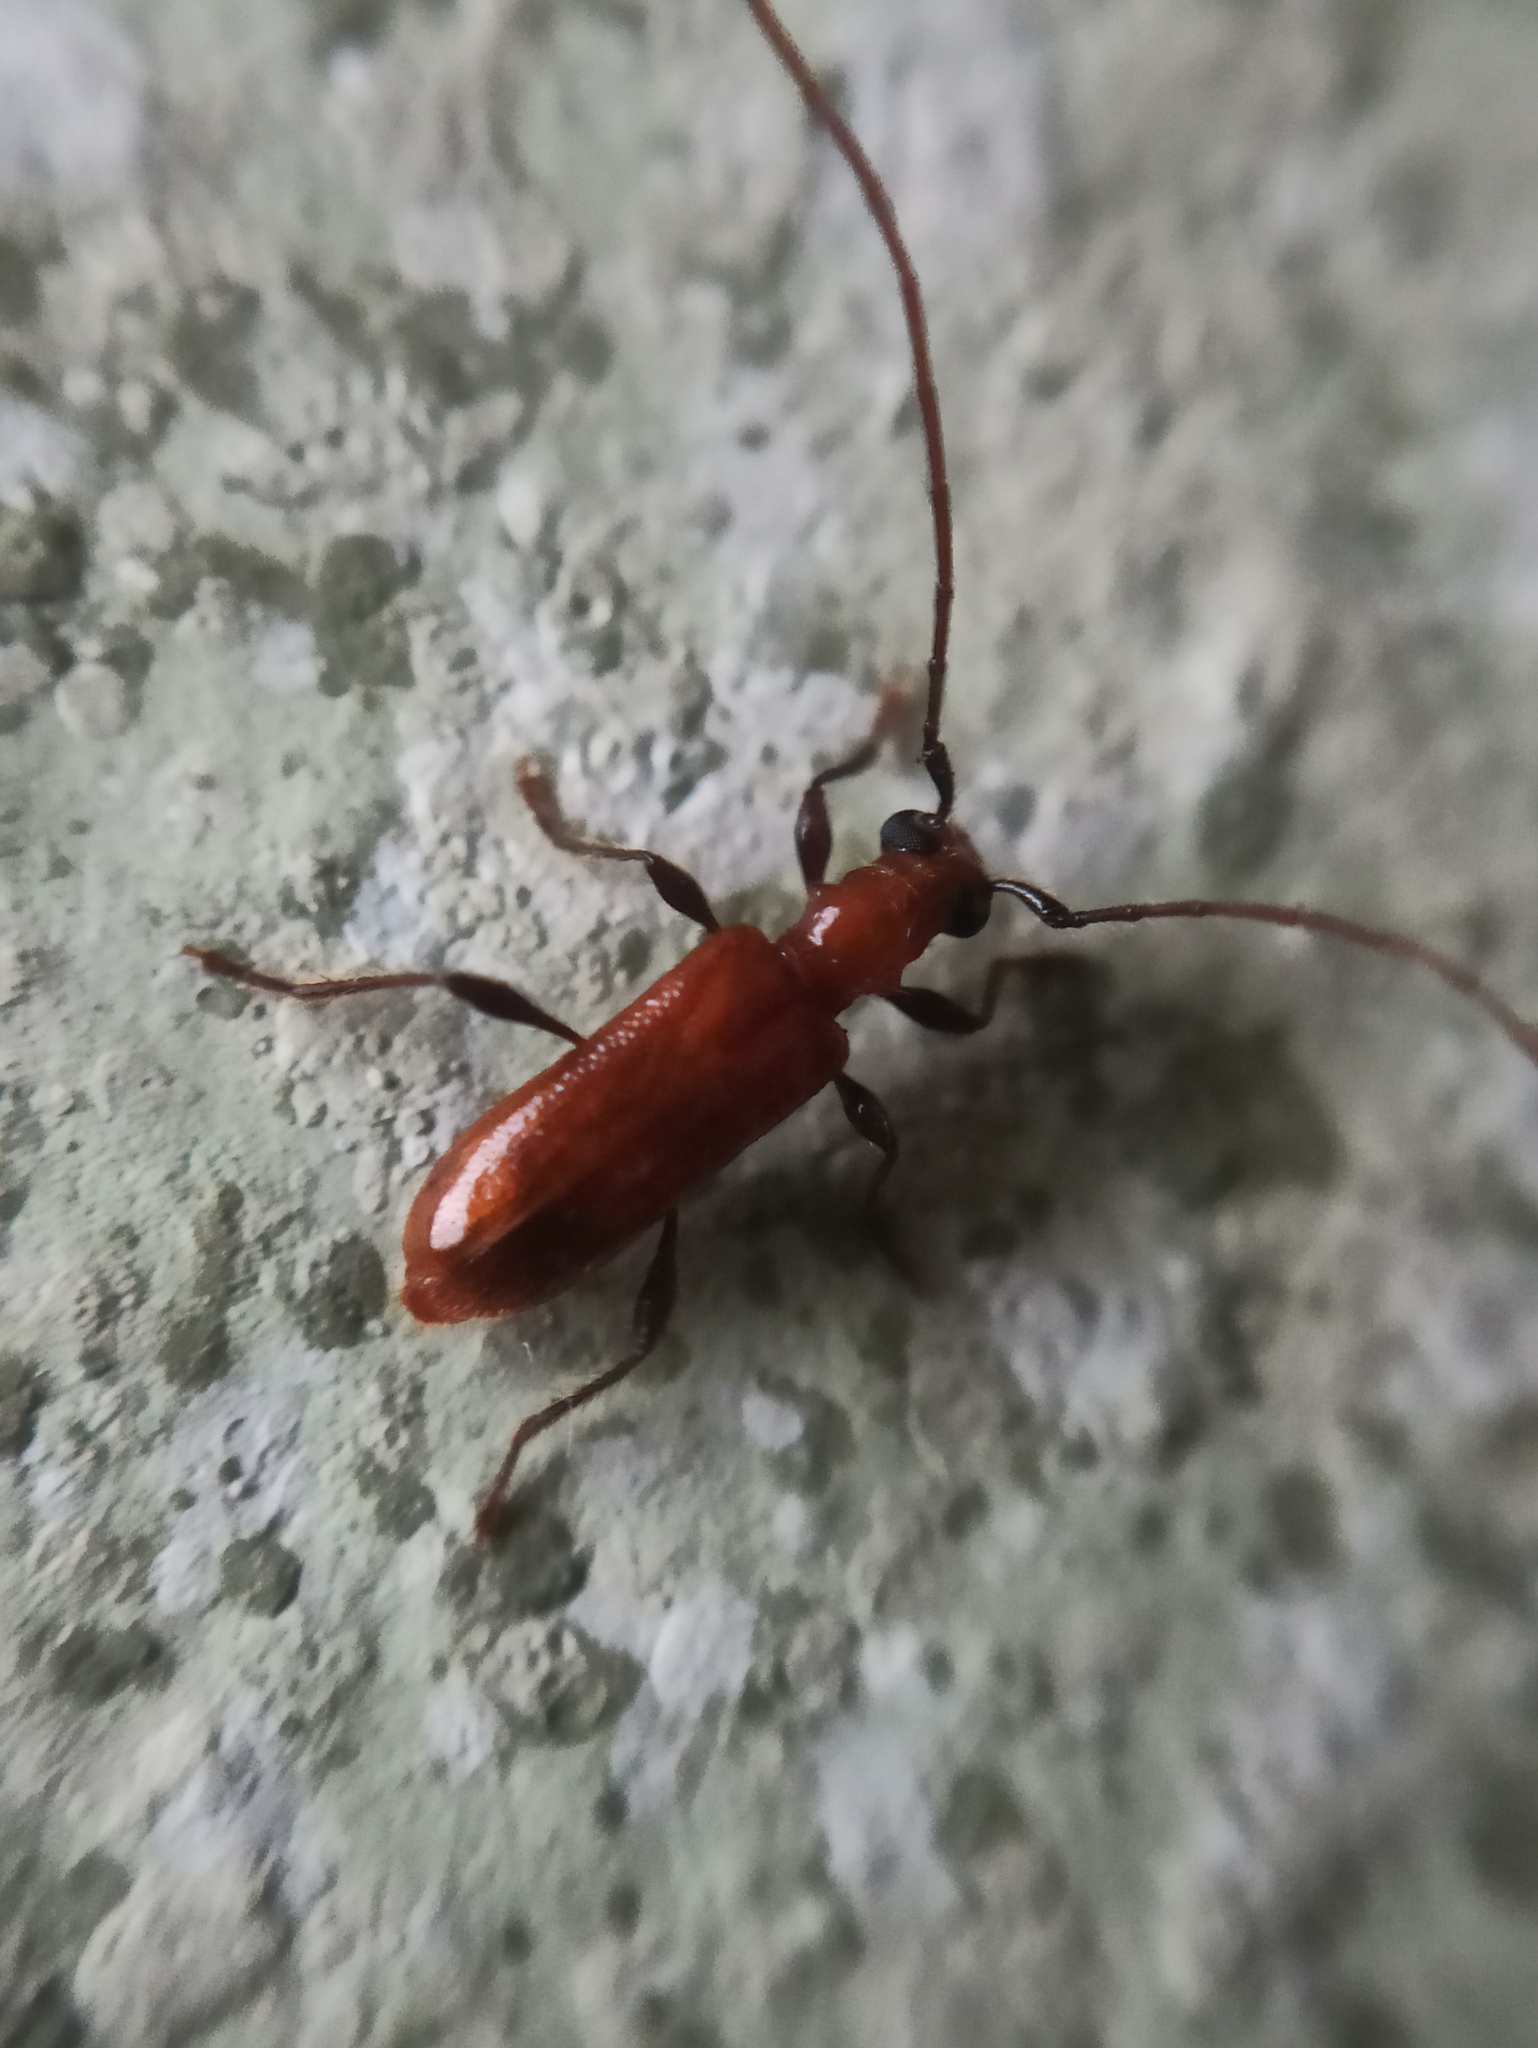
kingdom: Animalia
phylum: Arthropoda
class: Insecta
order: Coleoptera
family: Cerambycidae
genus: Obrium
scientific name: Obrium cantharinum
